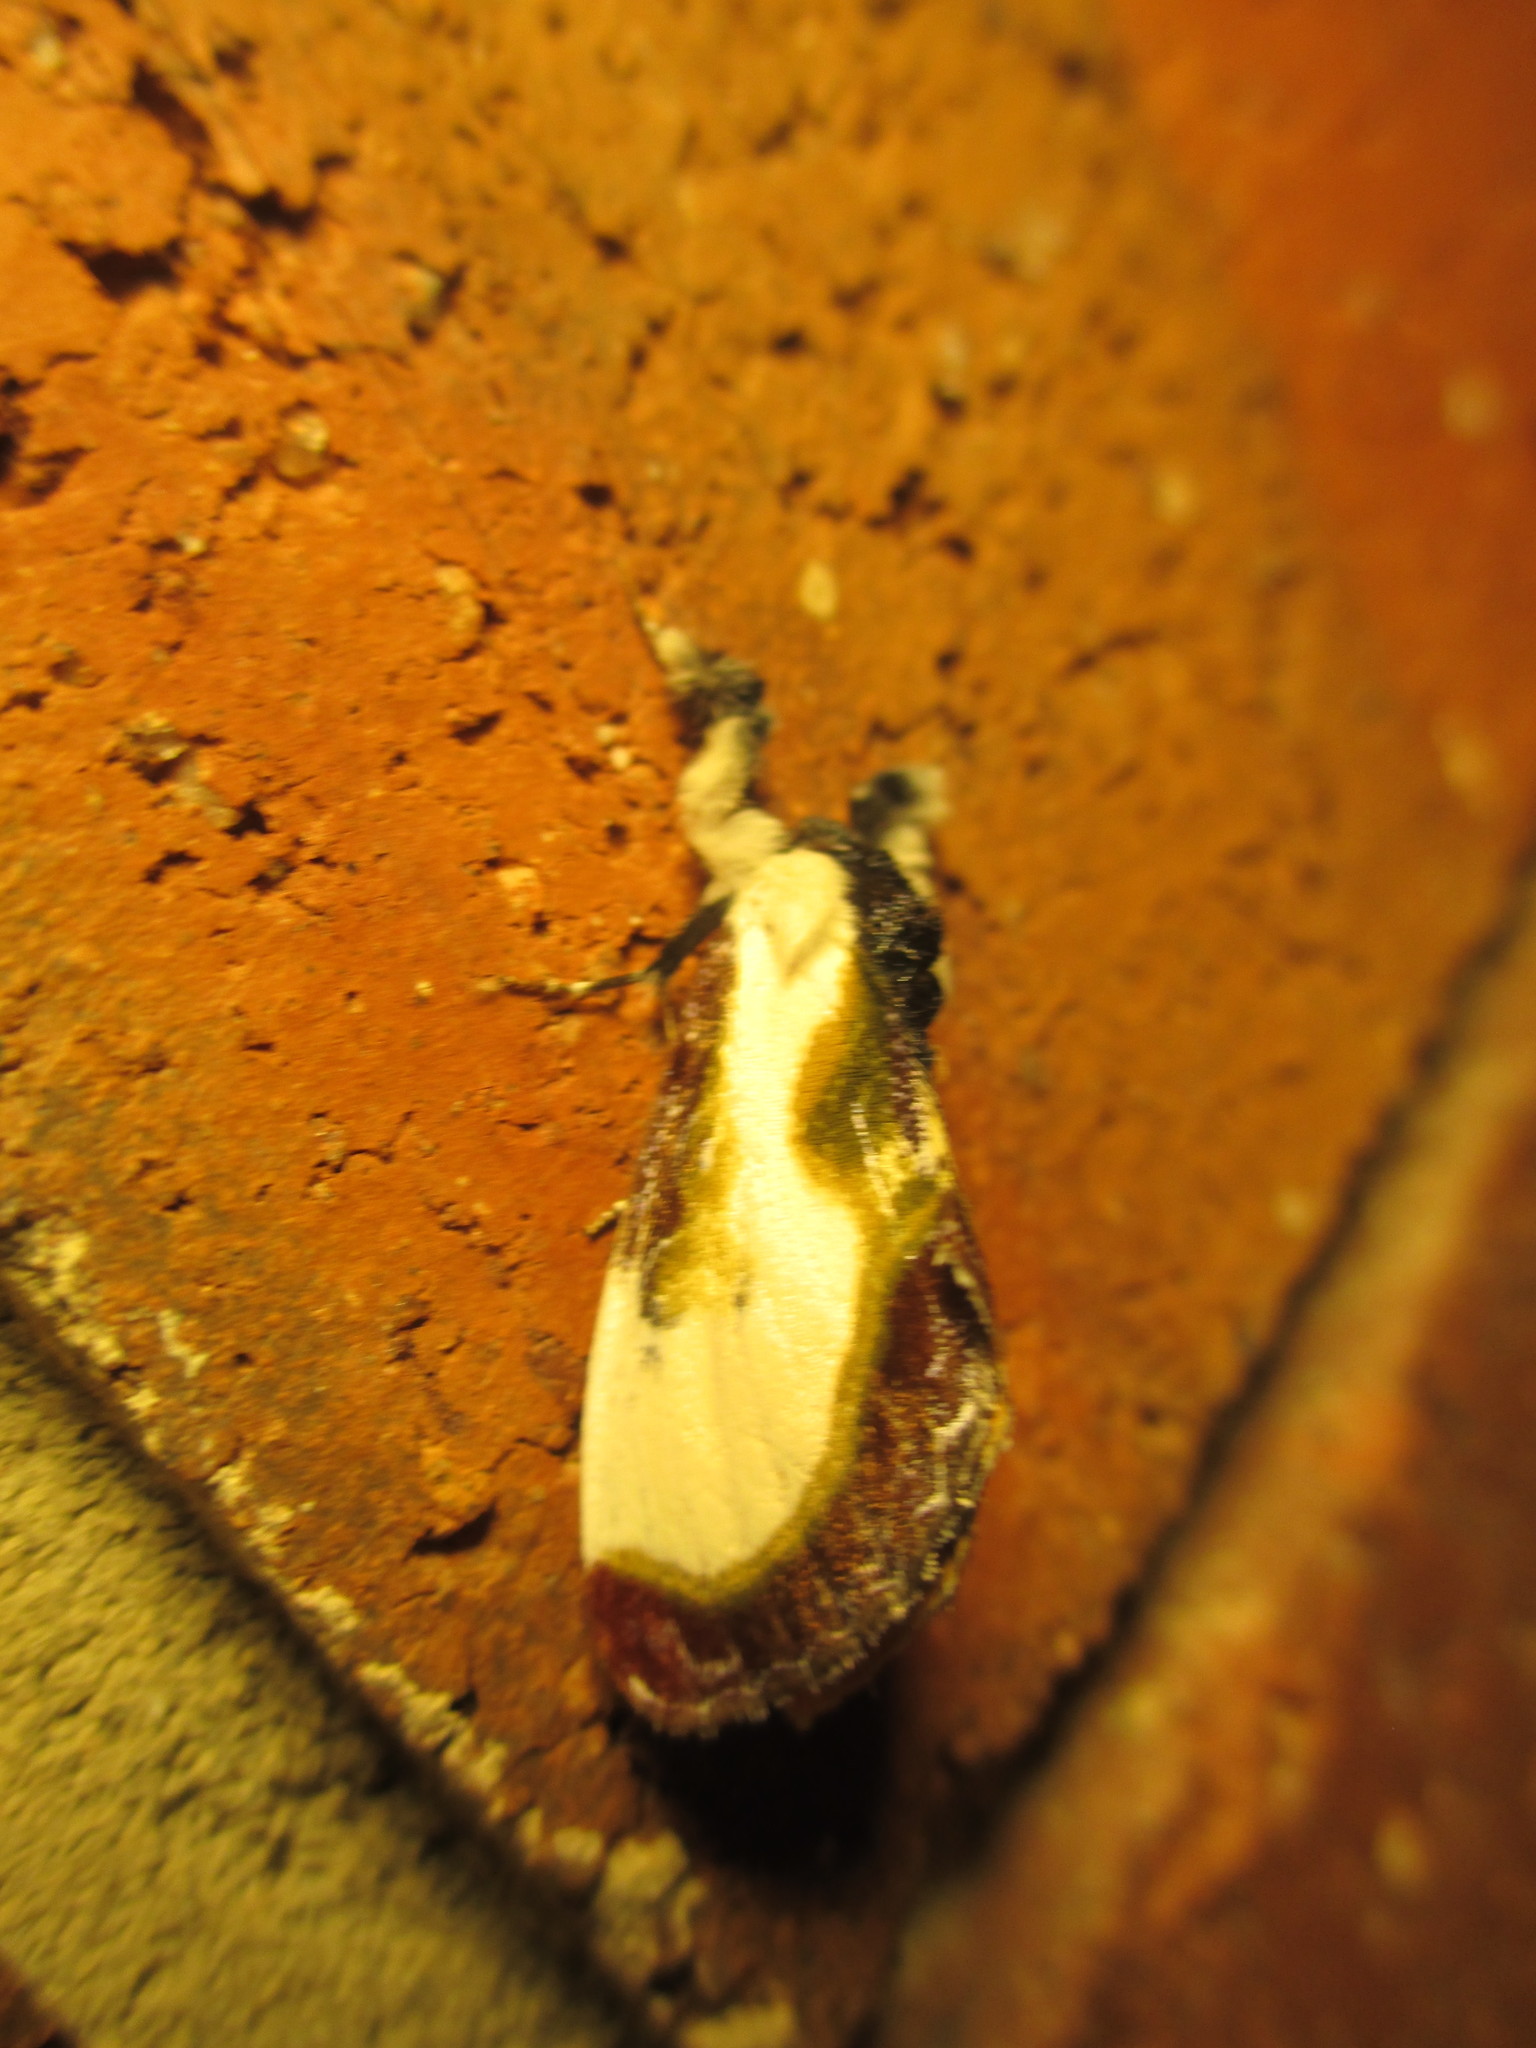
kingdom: Animalia
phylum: Arthropoda
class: Insecta
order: Lepidoptera
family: Noctuidae
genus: Eudryas
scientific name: Eudryas grata
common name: Beautiful wood-nymph
